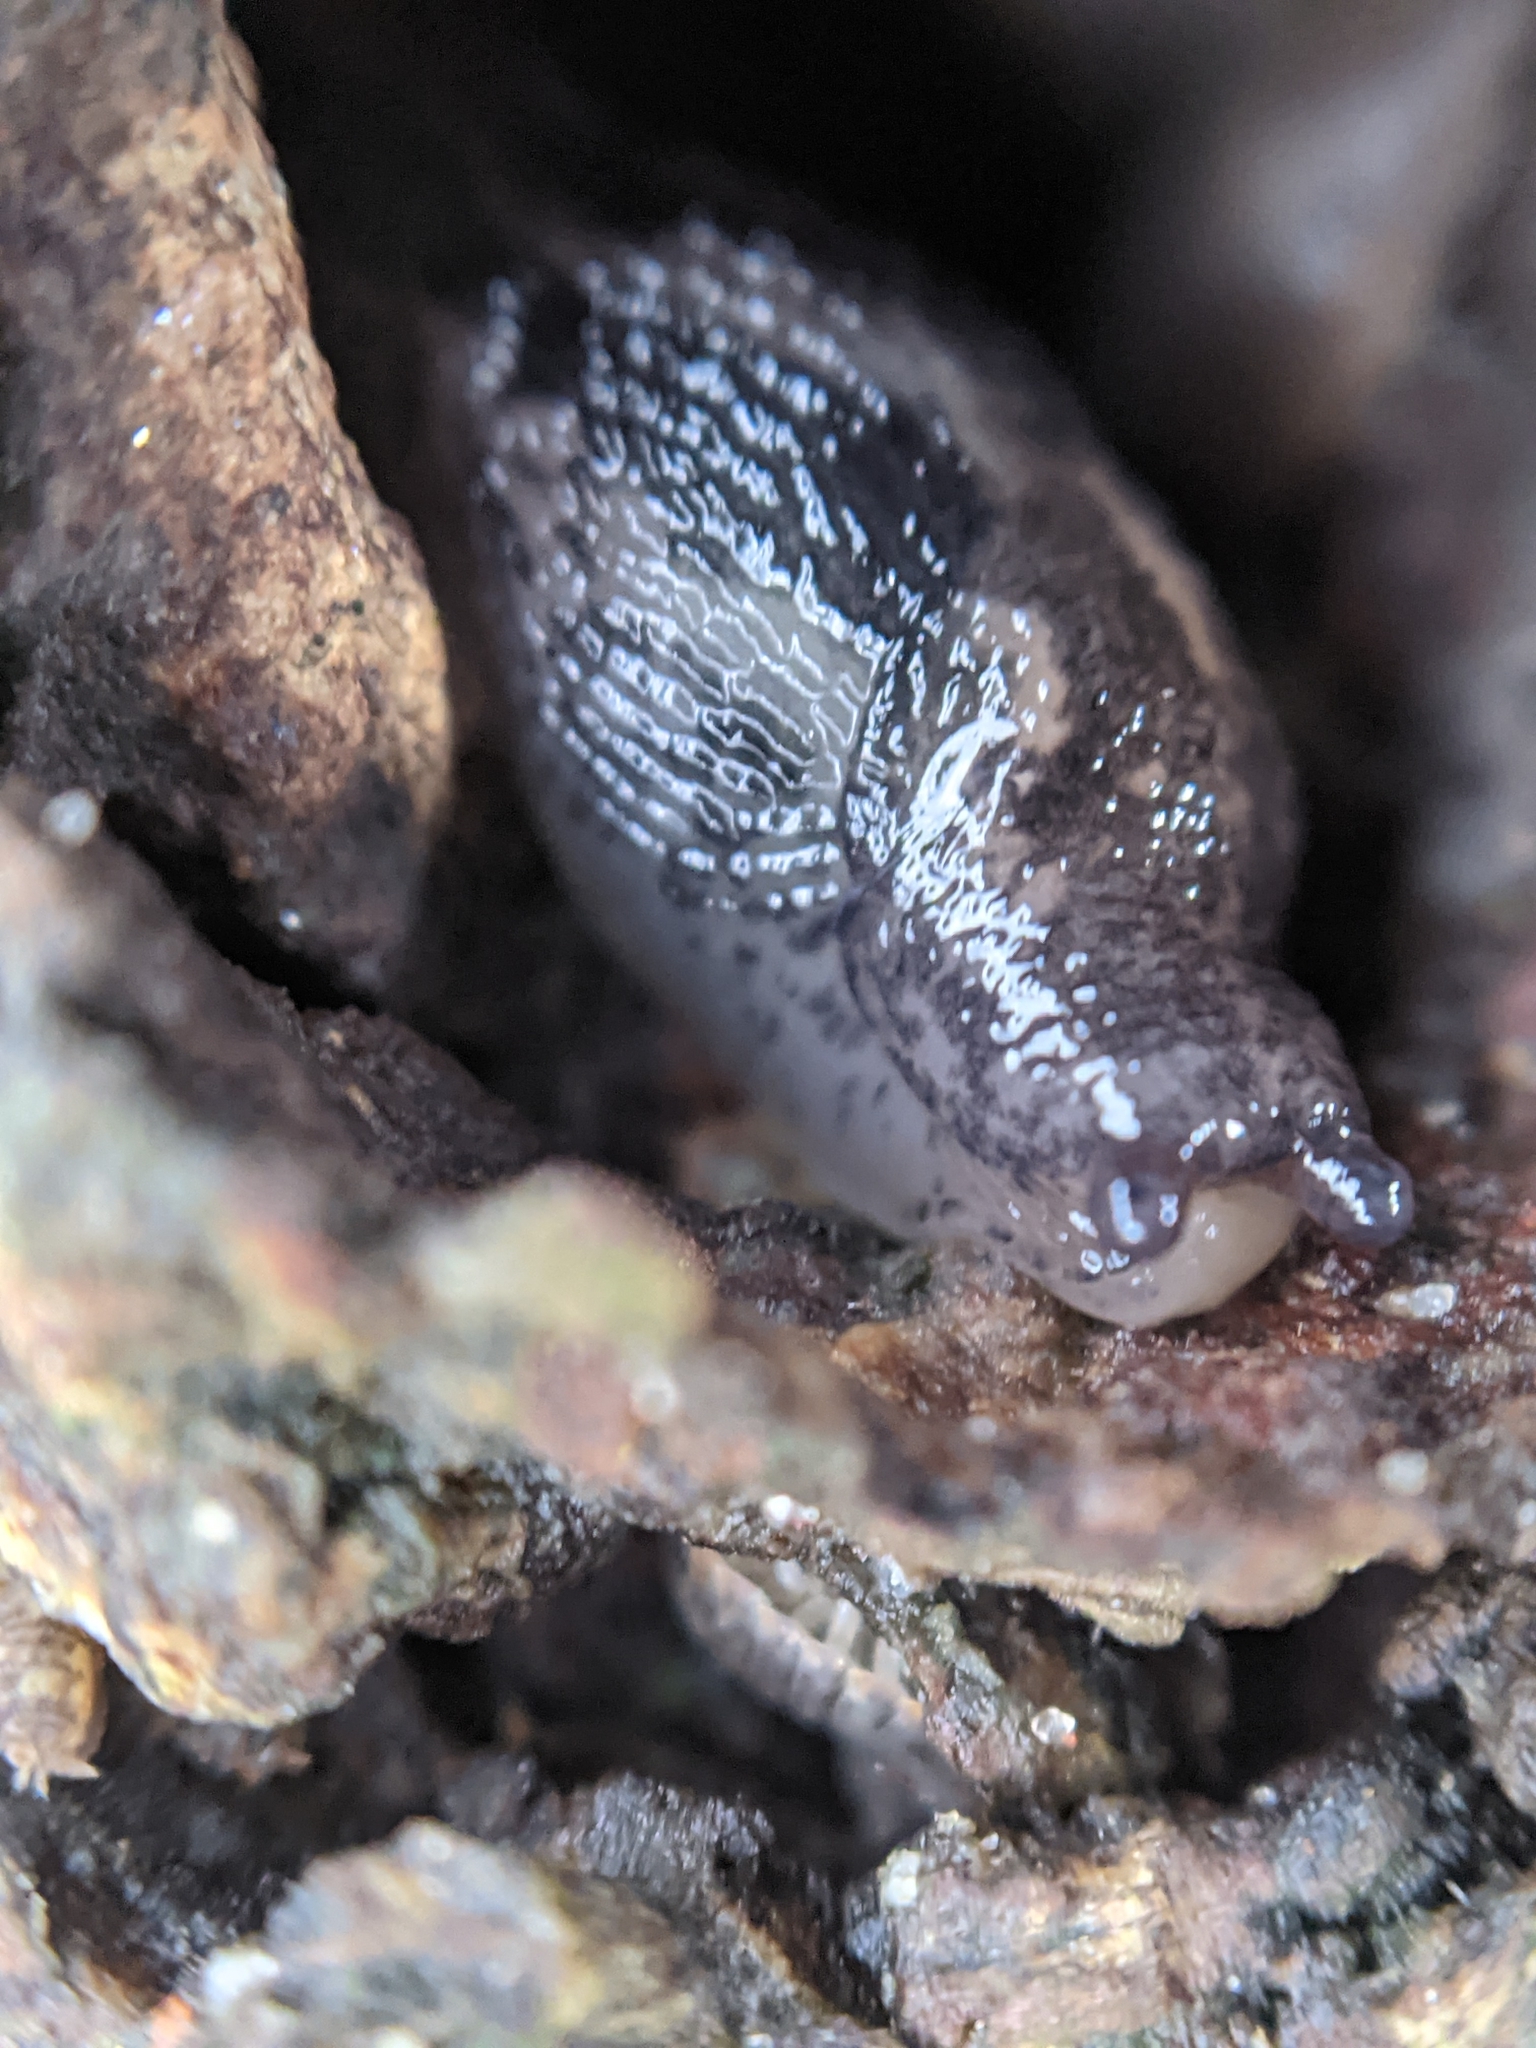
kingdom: Animalia
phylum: Mollusca
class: Gastropoda
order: Stylommatophora
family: Limacidae
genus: Limax
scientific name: Limax maximus
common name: Great grey slug
